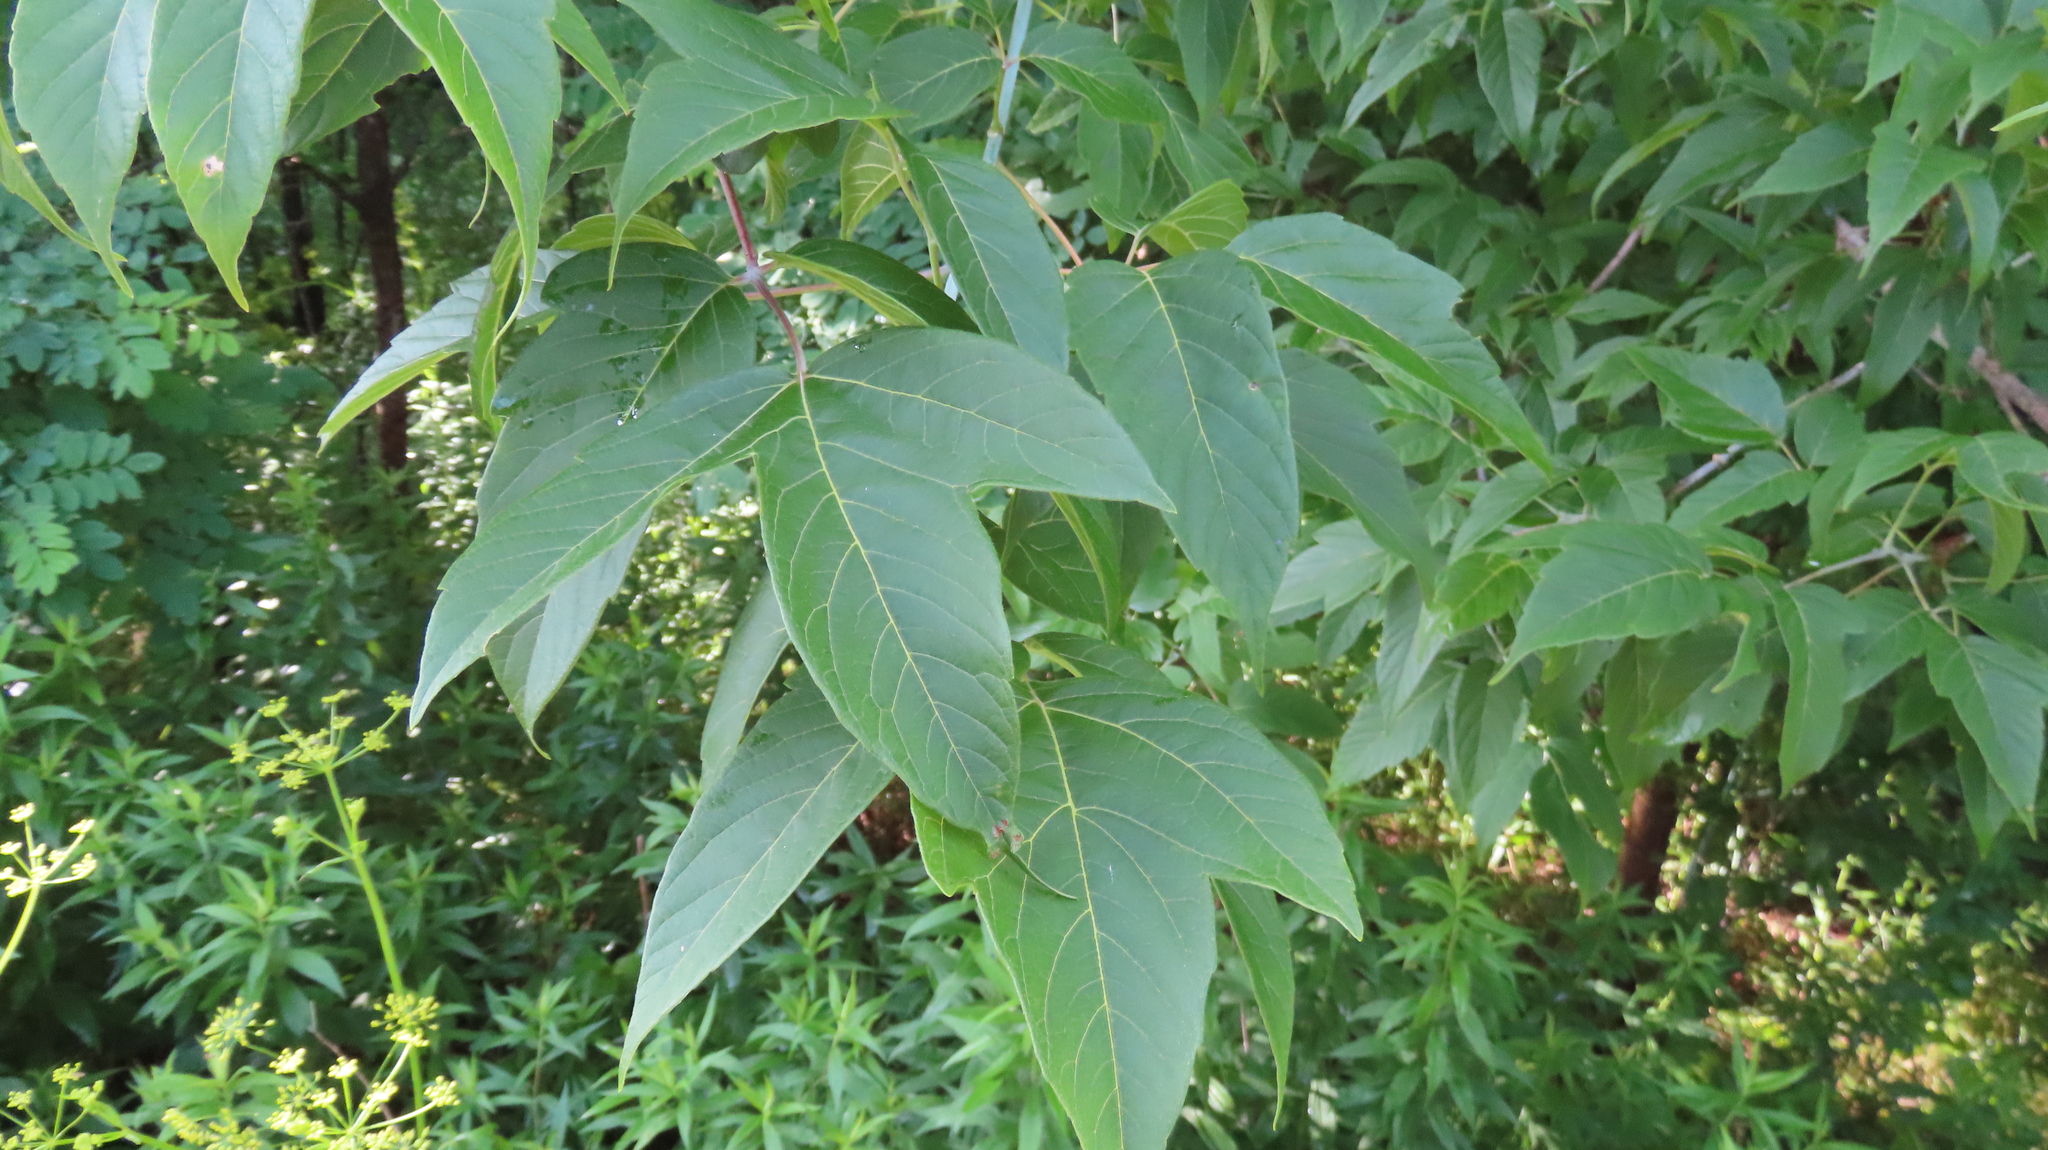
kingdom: Plantae
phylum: Tracheophyta
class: Magnoliopsida
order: Sapindales
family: Sapindaceae
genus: Acer
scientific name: Acer negundo
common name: Ashleaf maple
